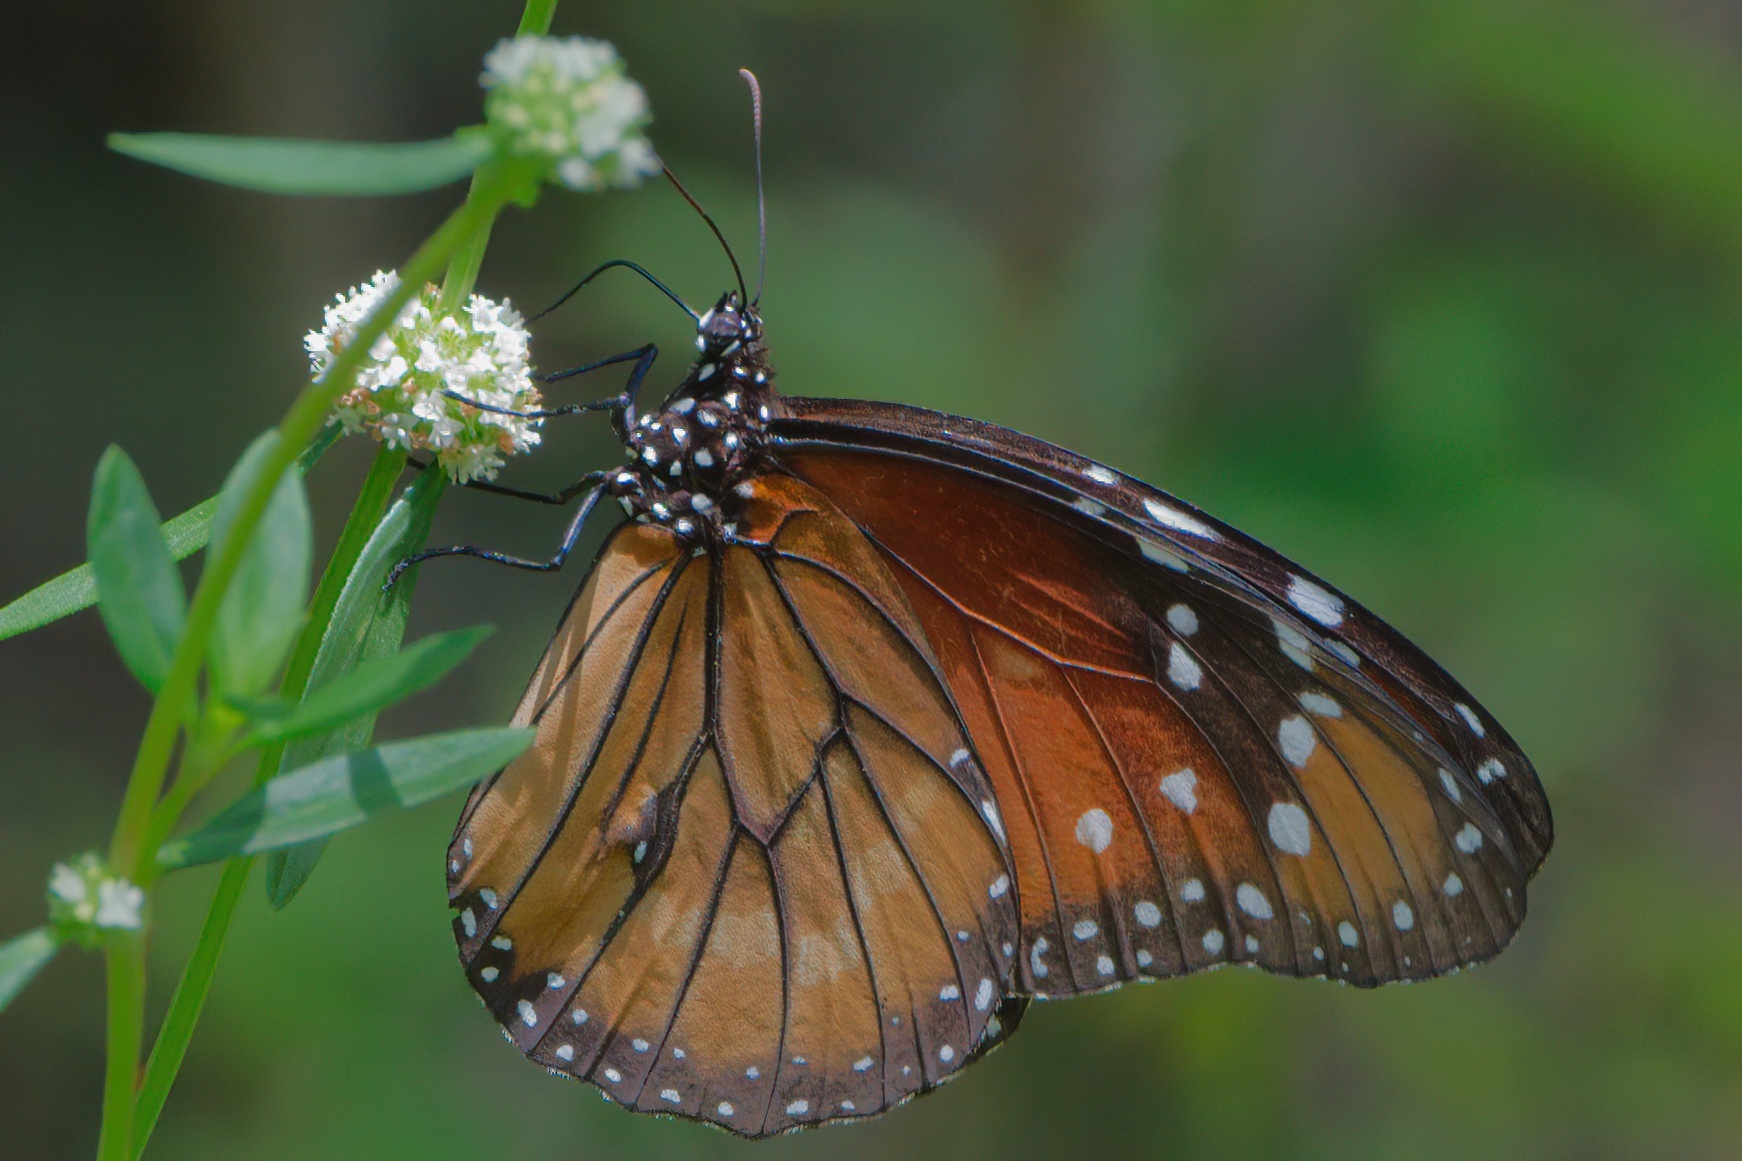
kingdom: Animalia
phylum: Arthropoda
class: Insecta
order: Lepidoptera
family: Nymphalidae
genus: Danaus
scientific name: Danaus eresimus
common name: Soldier
